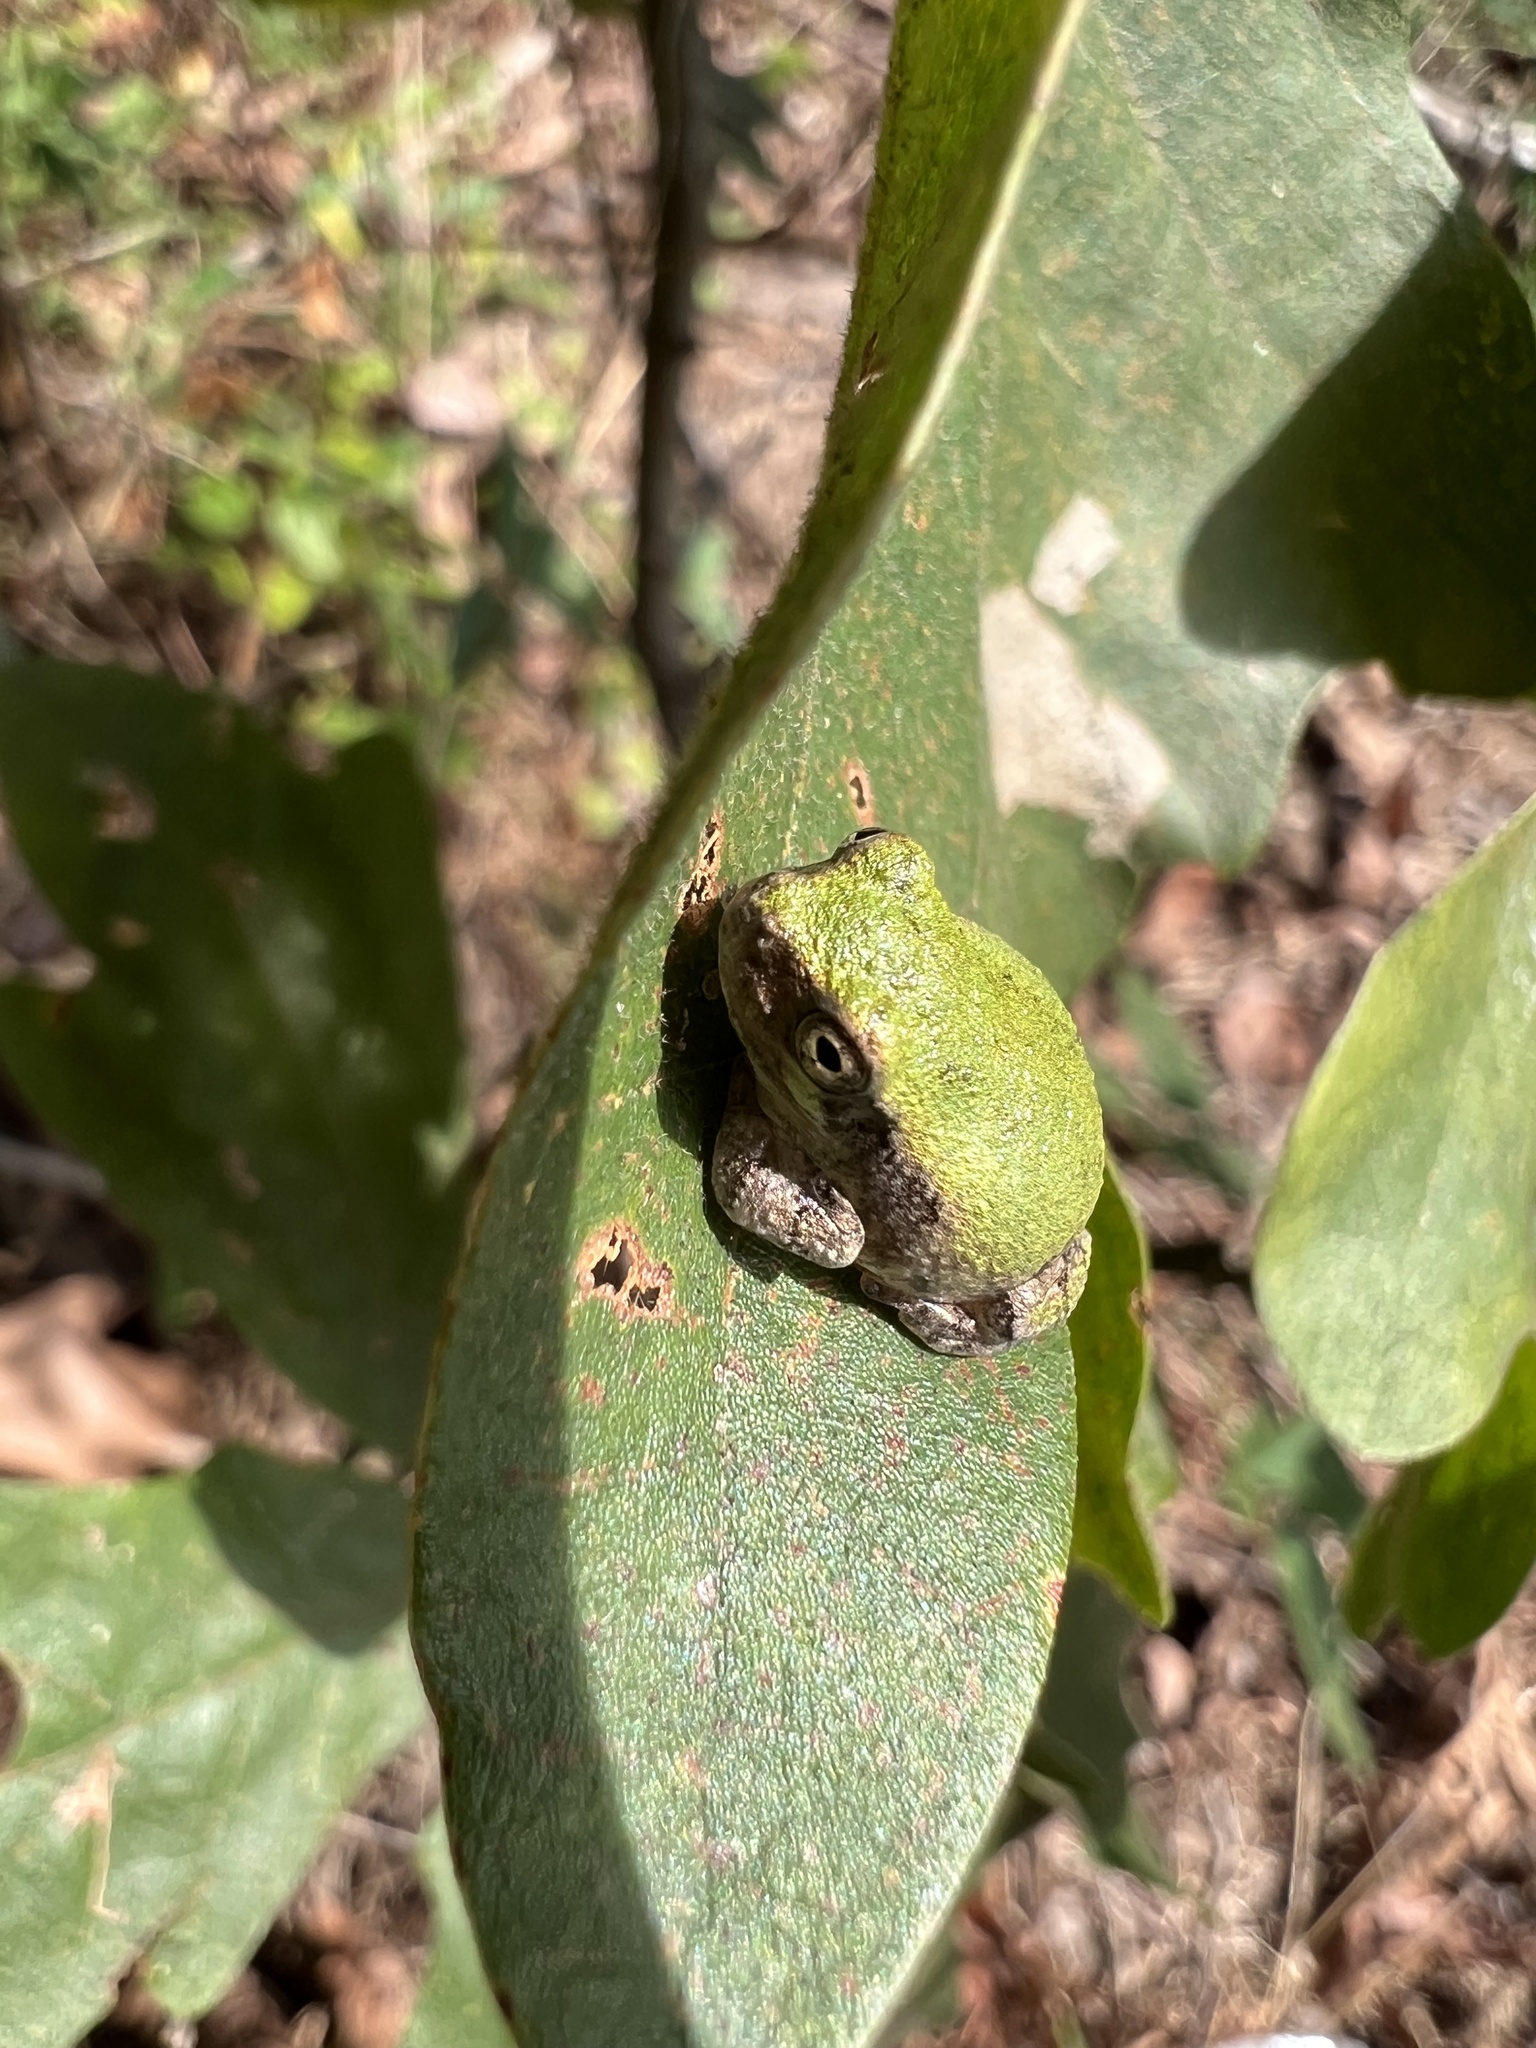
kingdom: Animalia
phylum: Chordata
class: Amphibia
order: Anura
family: Hylidae
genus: Hyla
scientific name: Hyla
